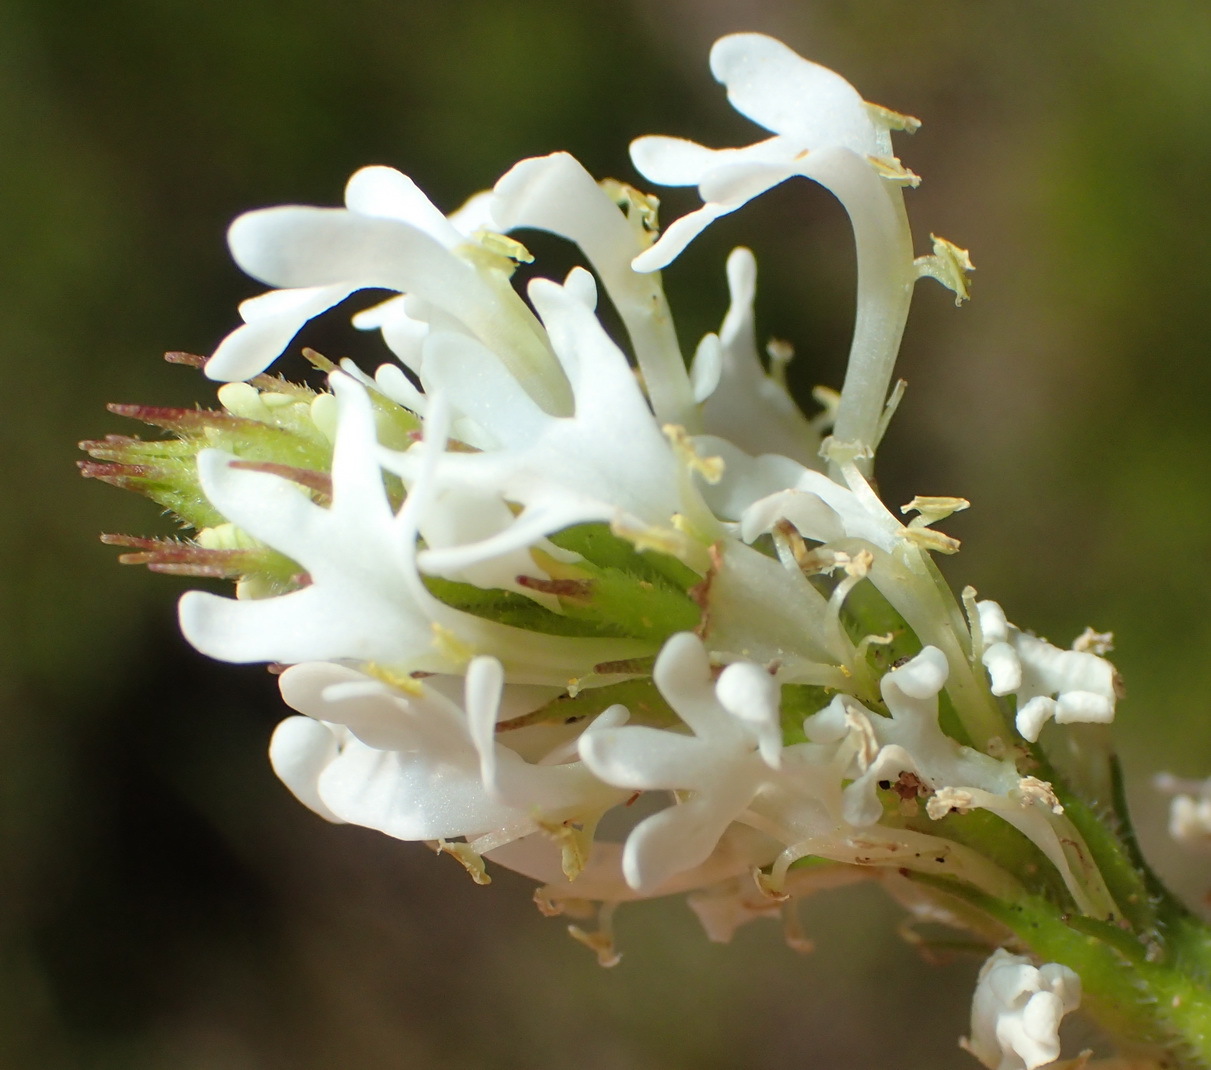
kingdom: Plantae
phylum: Tracheophyta
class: Magnoliopsida
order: Lamiales
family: Scrophulariaceae
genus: Dischisma
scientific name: Dischisma ciliatum
